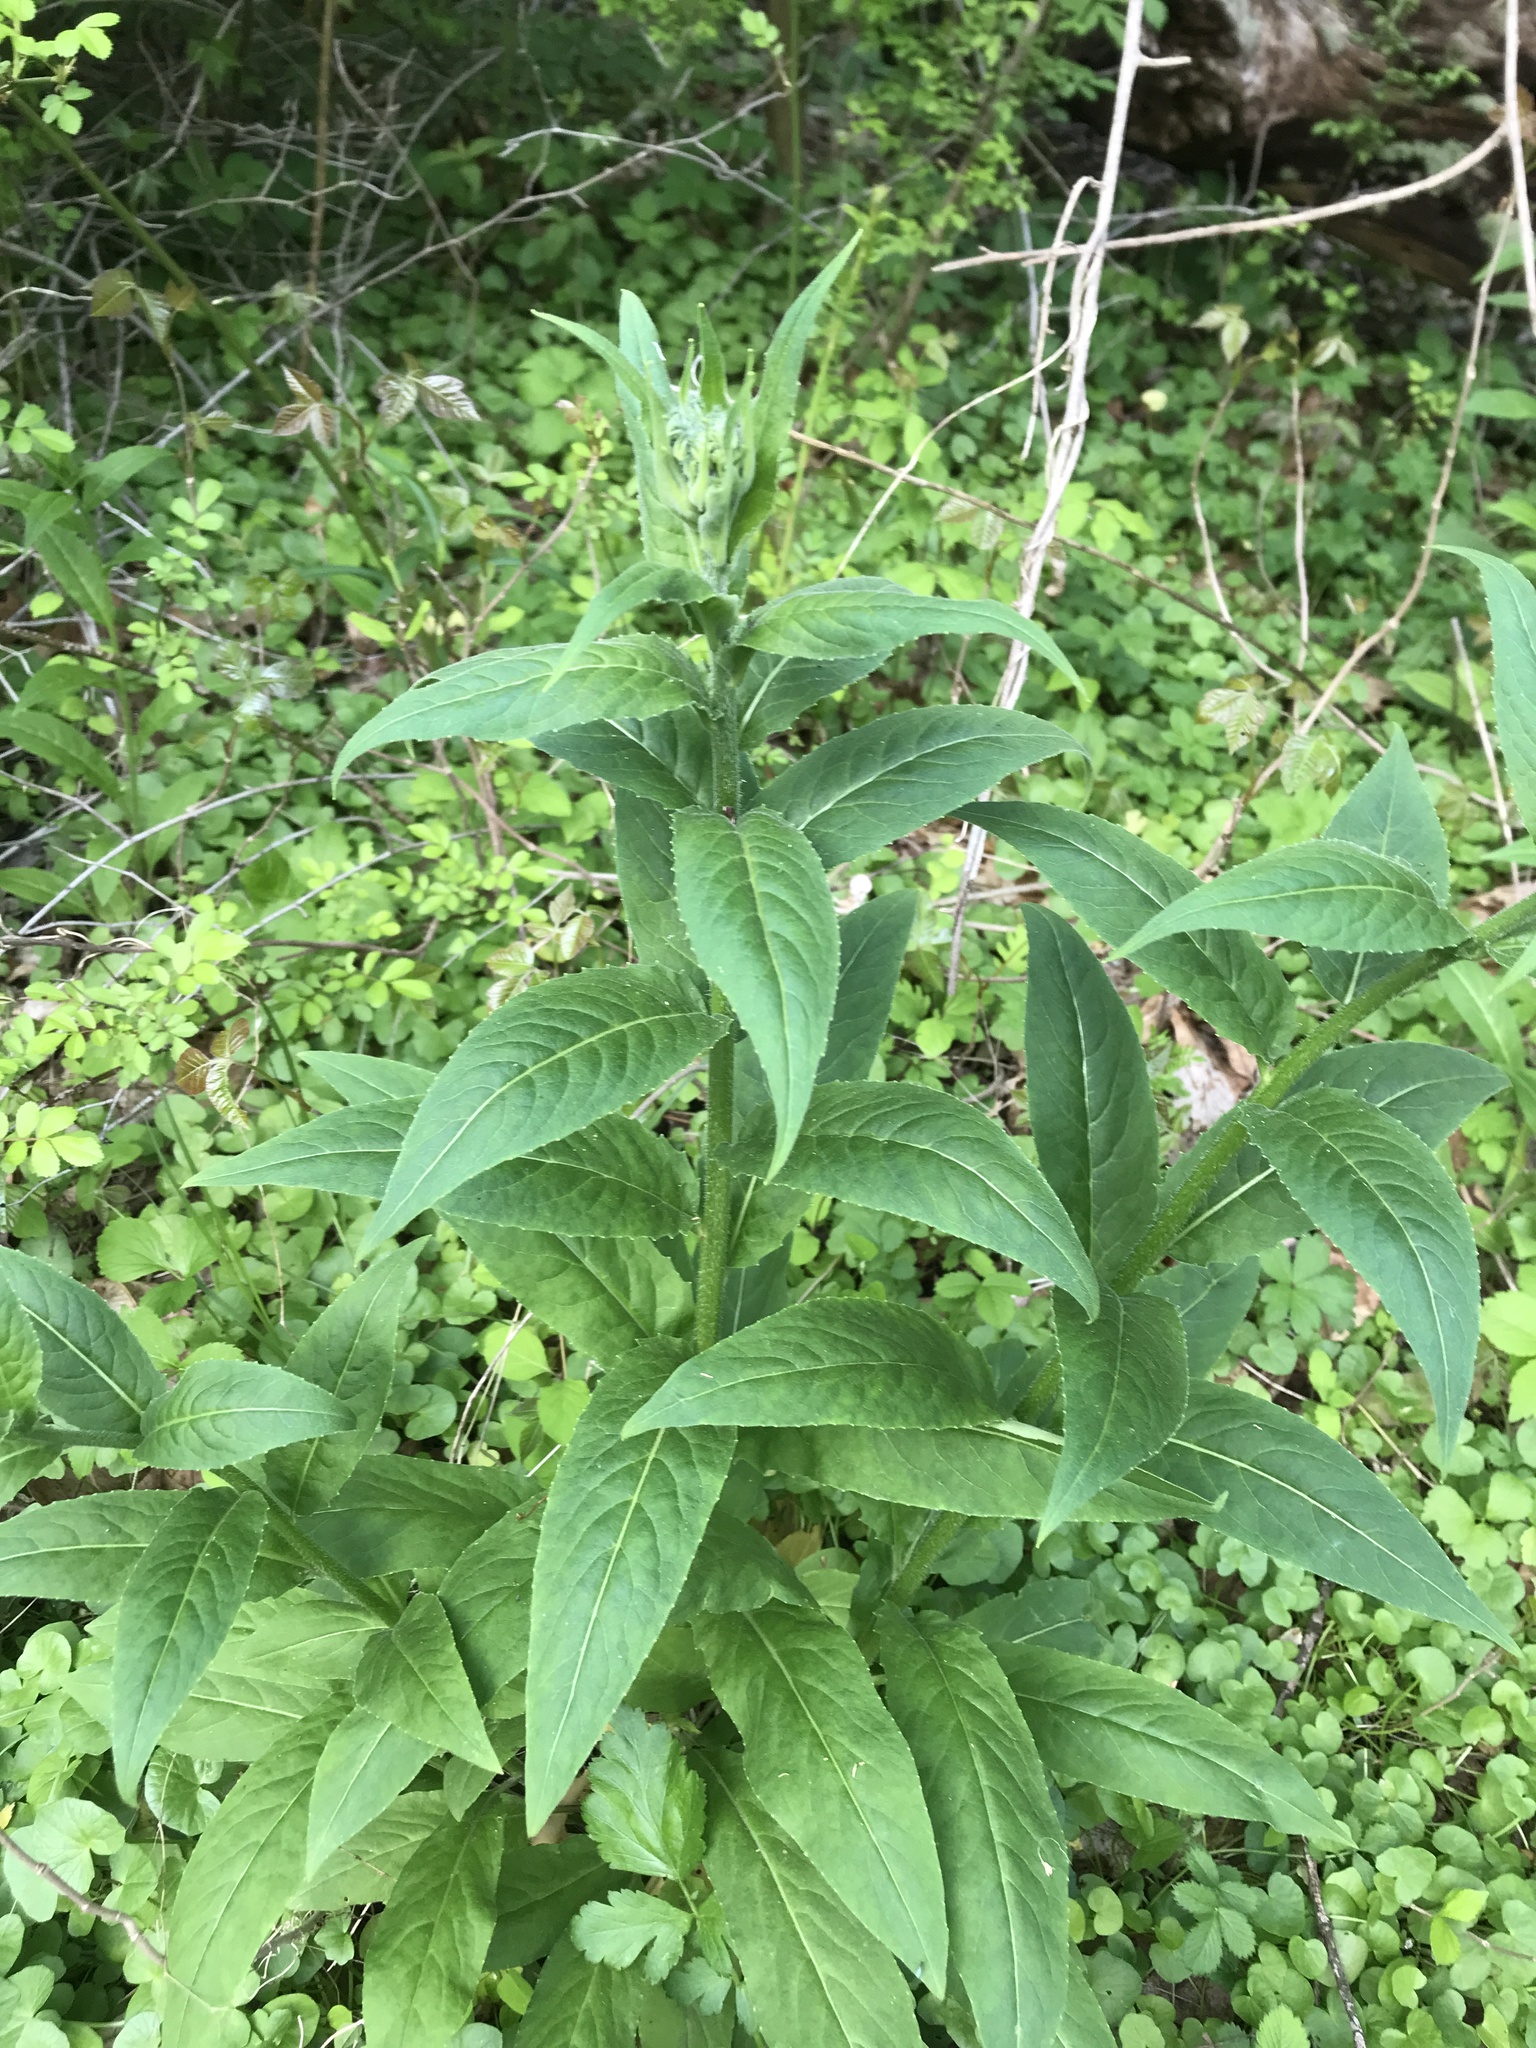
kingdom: Plantae
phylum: Tracheophyta
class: Magnoliopsida
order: Brassicales
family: Brassicaceae
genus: Hesperis
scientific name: Hesperis matronalis
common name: Dame's-violet
